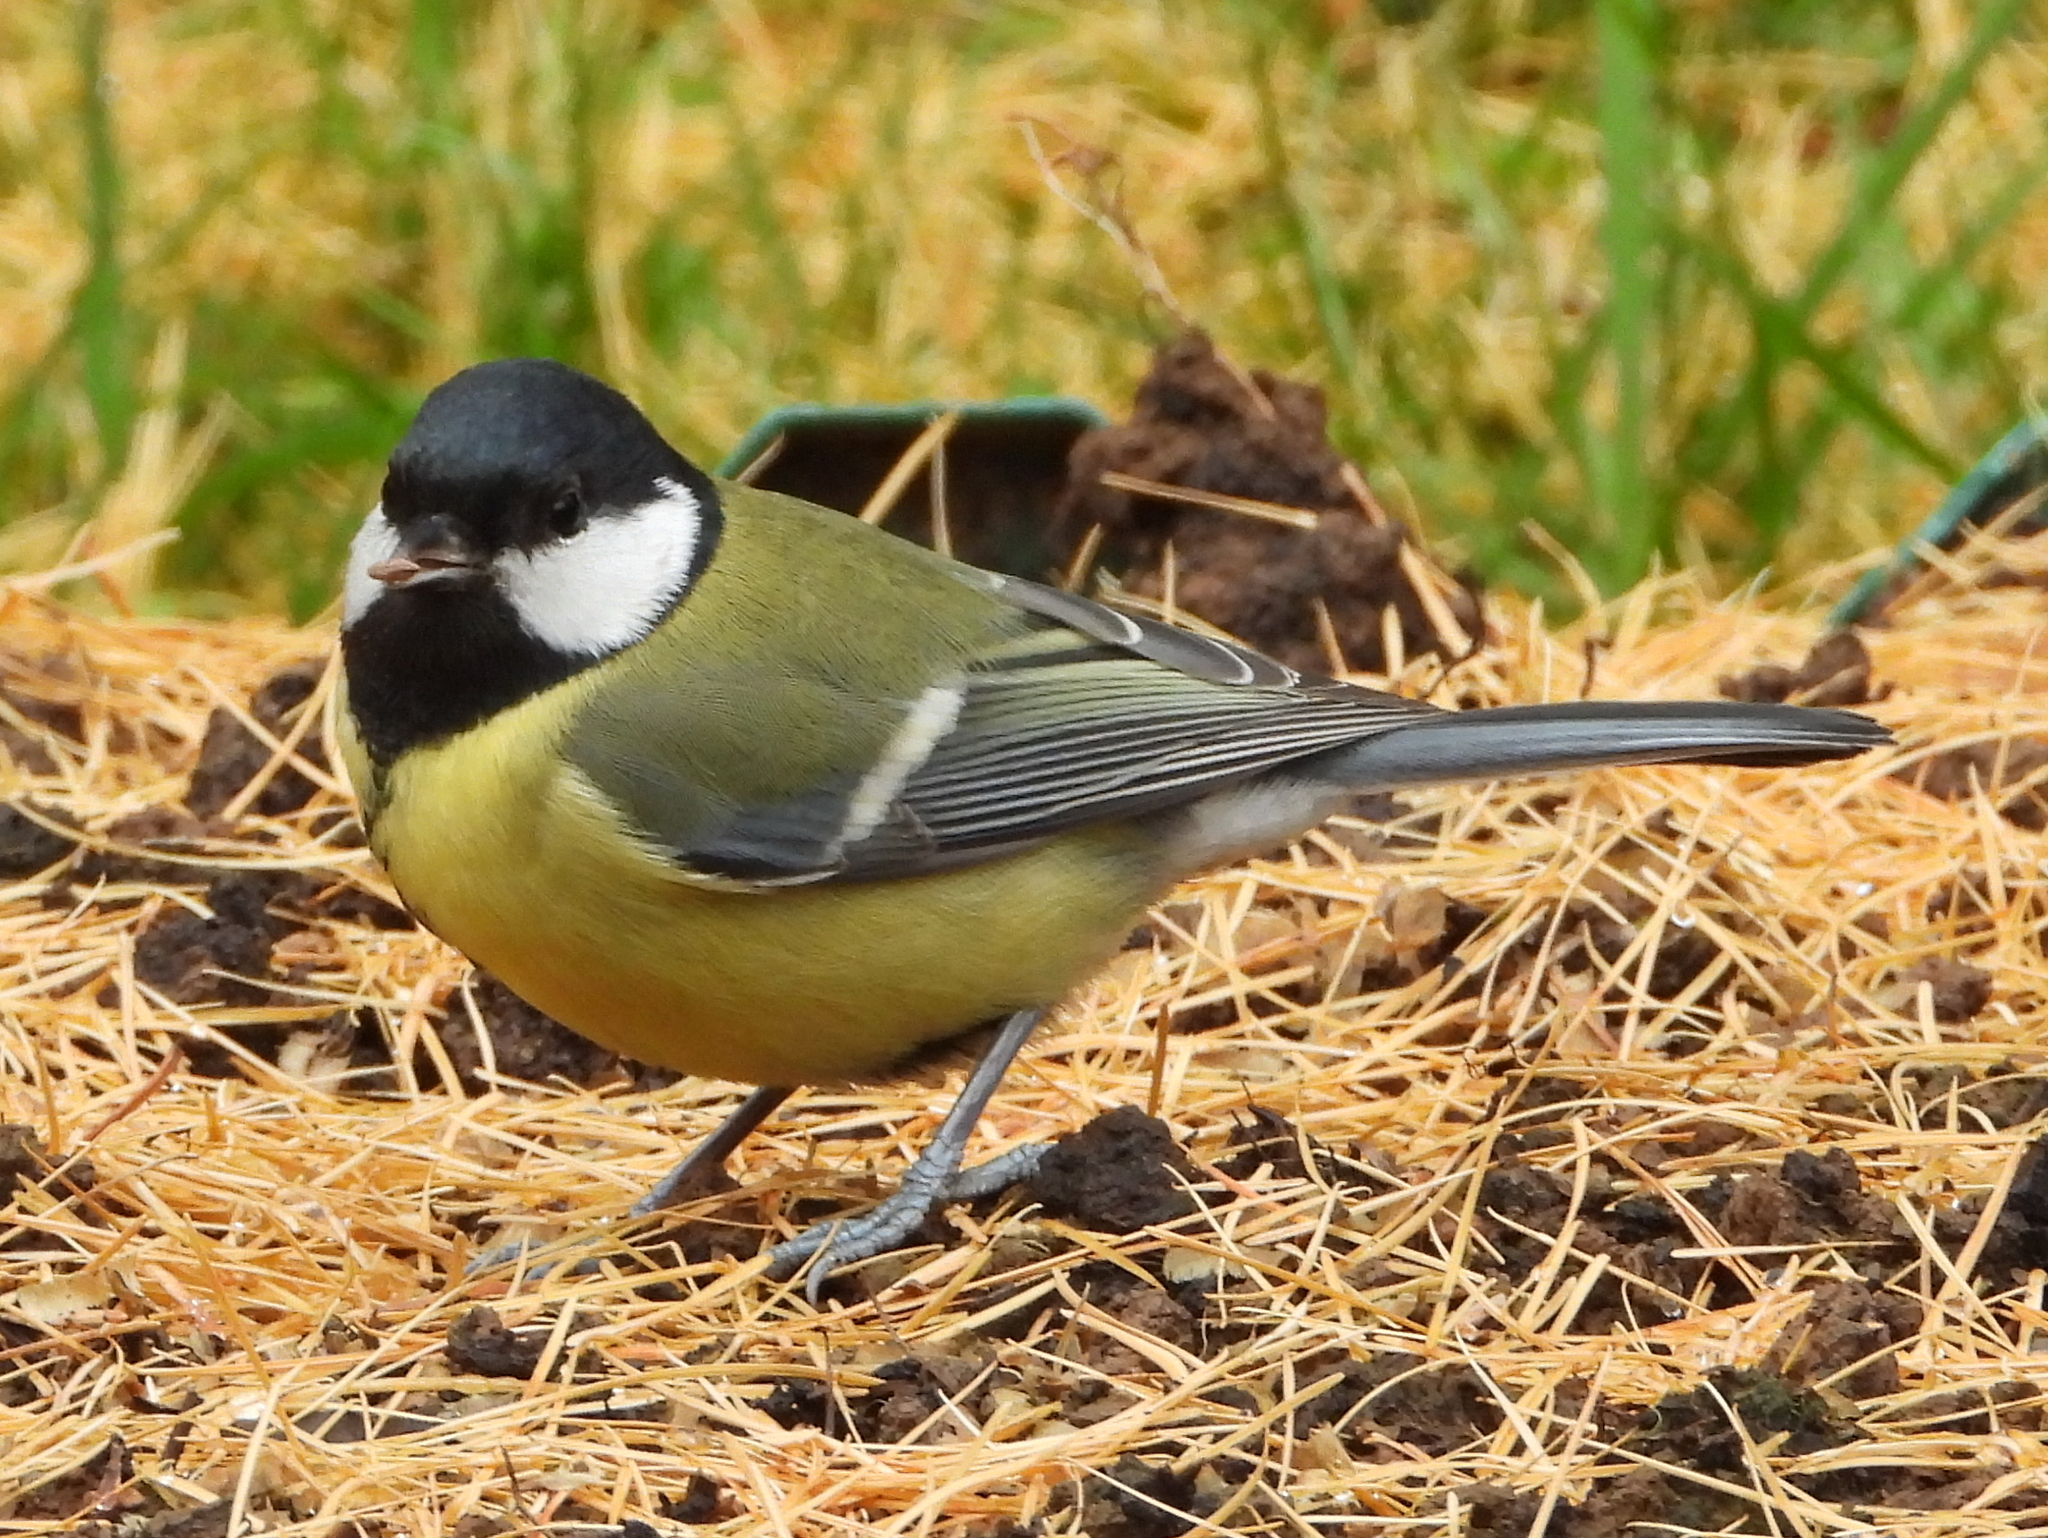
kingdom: Animalia
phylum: Chordata
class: Aves
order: Passeriformes
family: Paridae
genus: Parus
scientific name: Parus major
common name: Great tit
